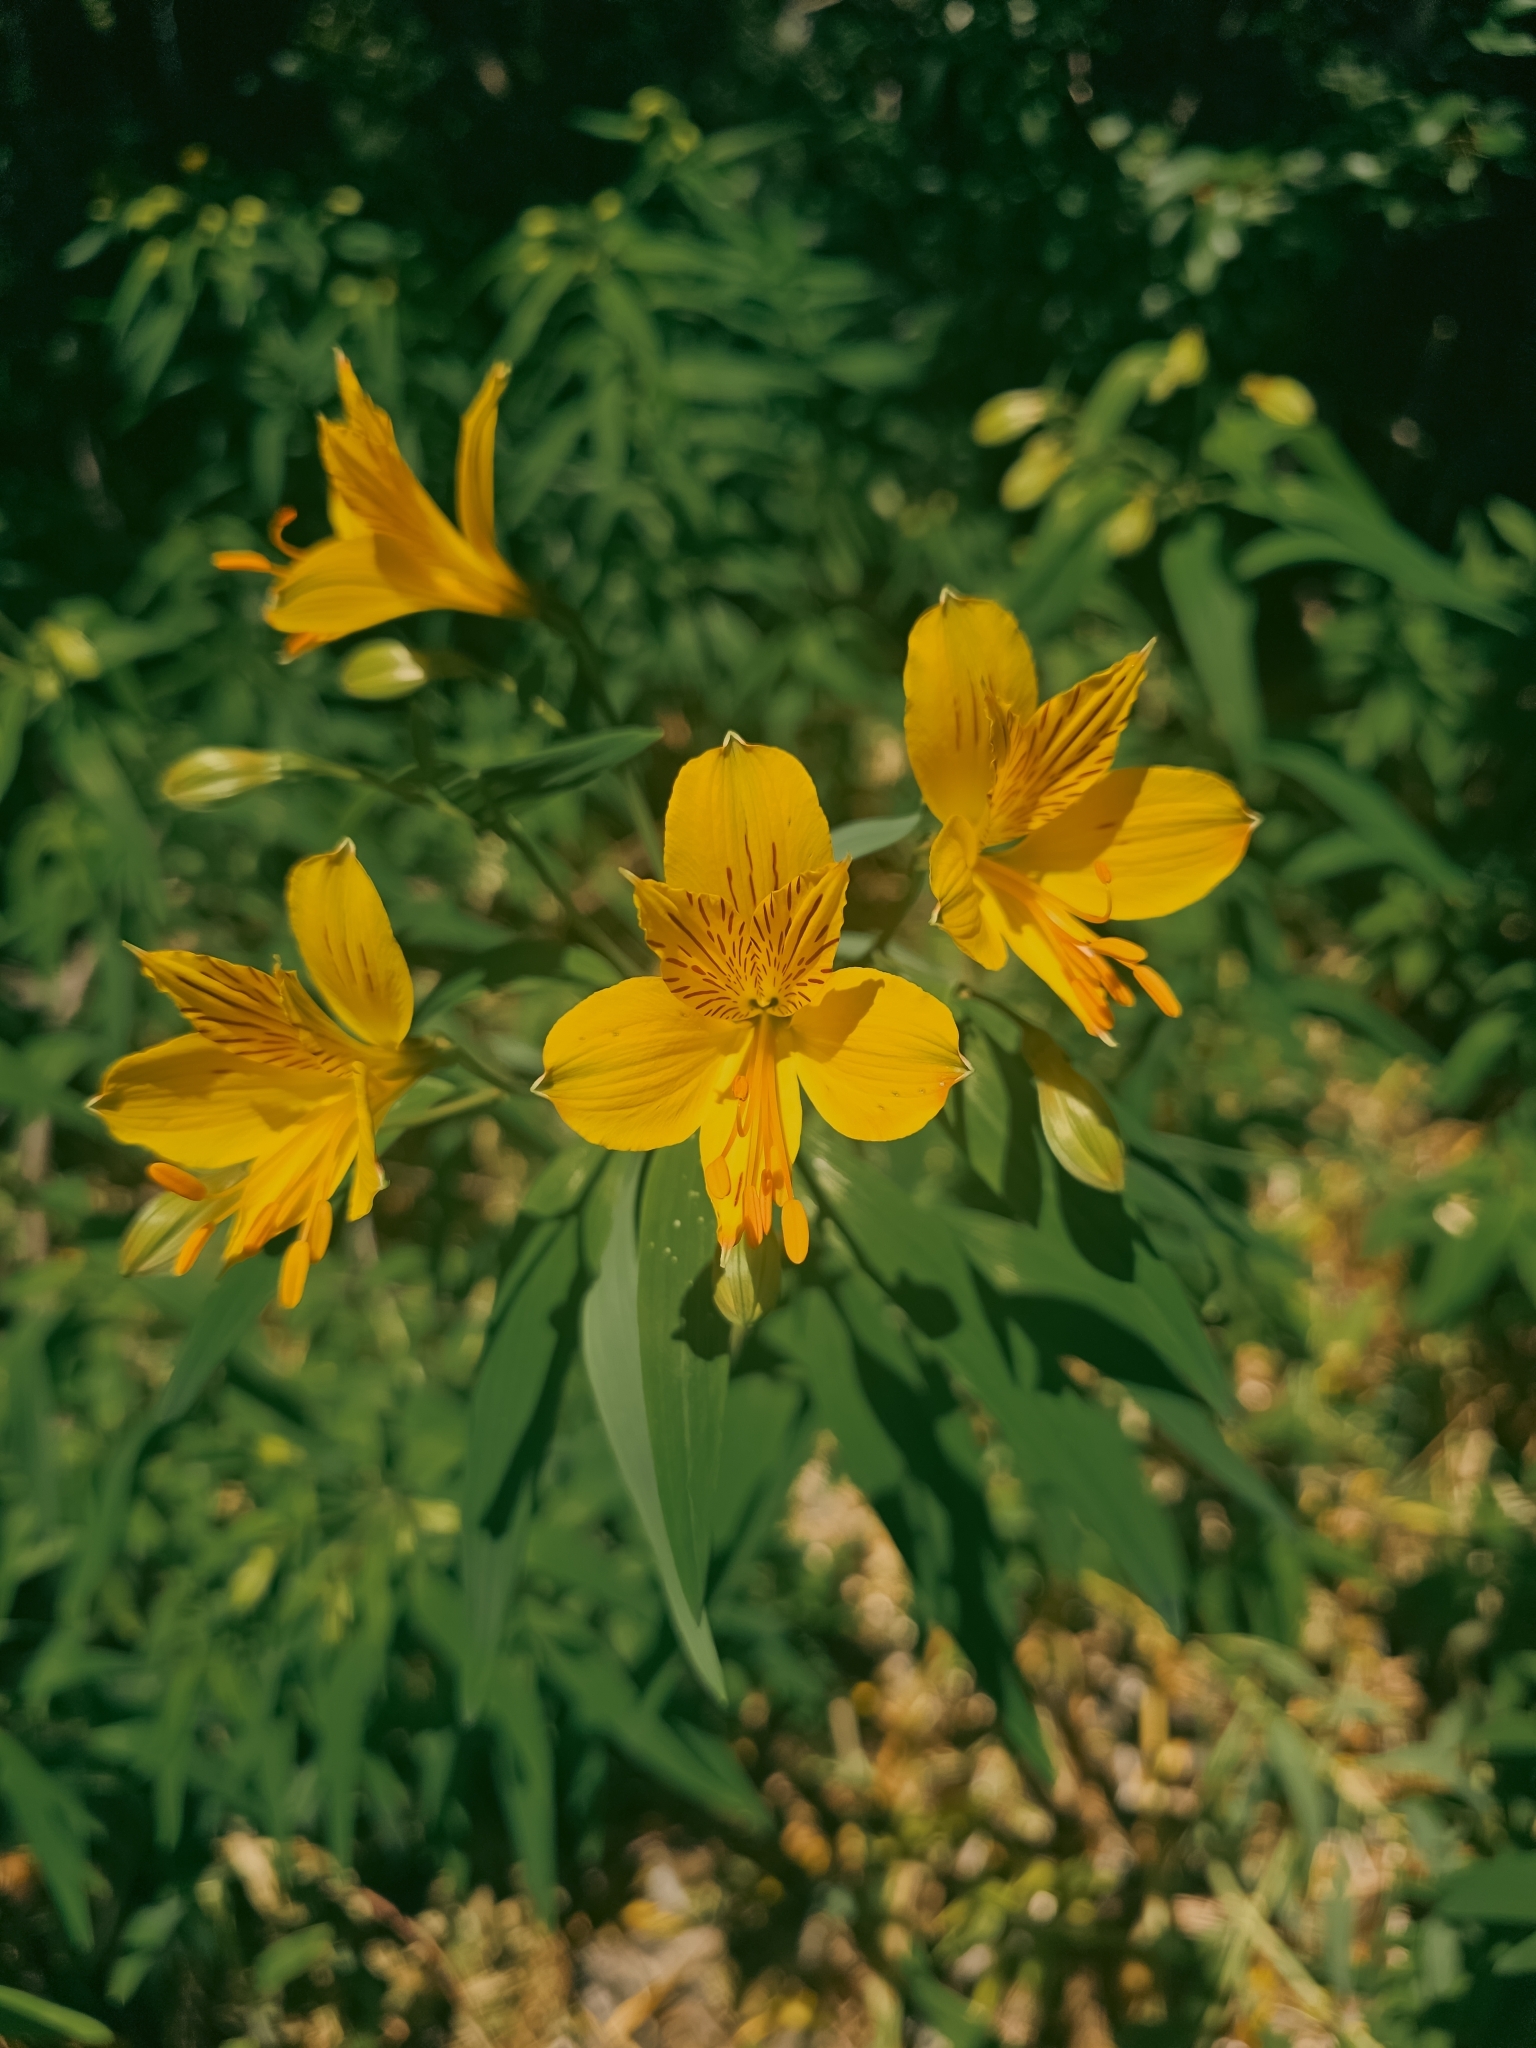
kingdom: Plantae
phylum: Tracheophyta
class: Liliopsida
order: Liliales
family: Alstroemeriaceae
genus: Alstroemeria
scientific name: Alstroemeria aurea
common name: Peruvian lily
